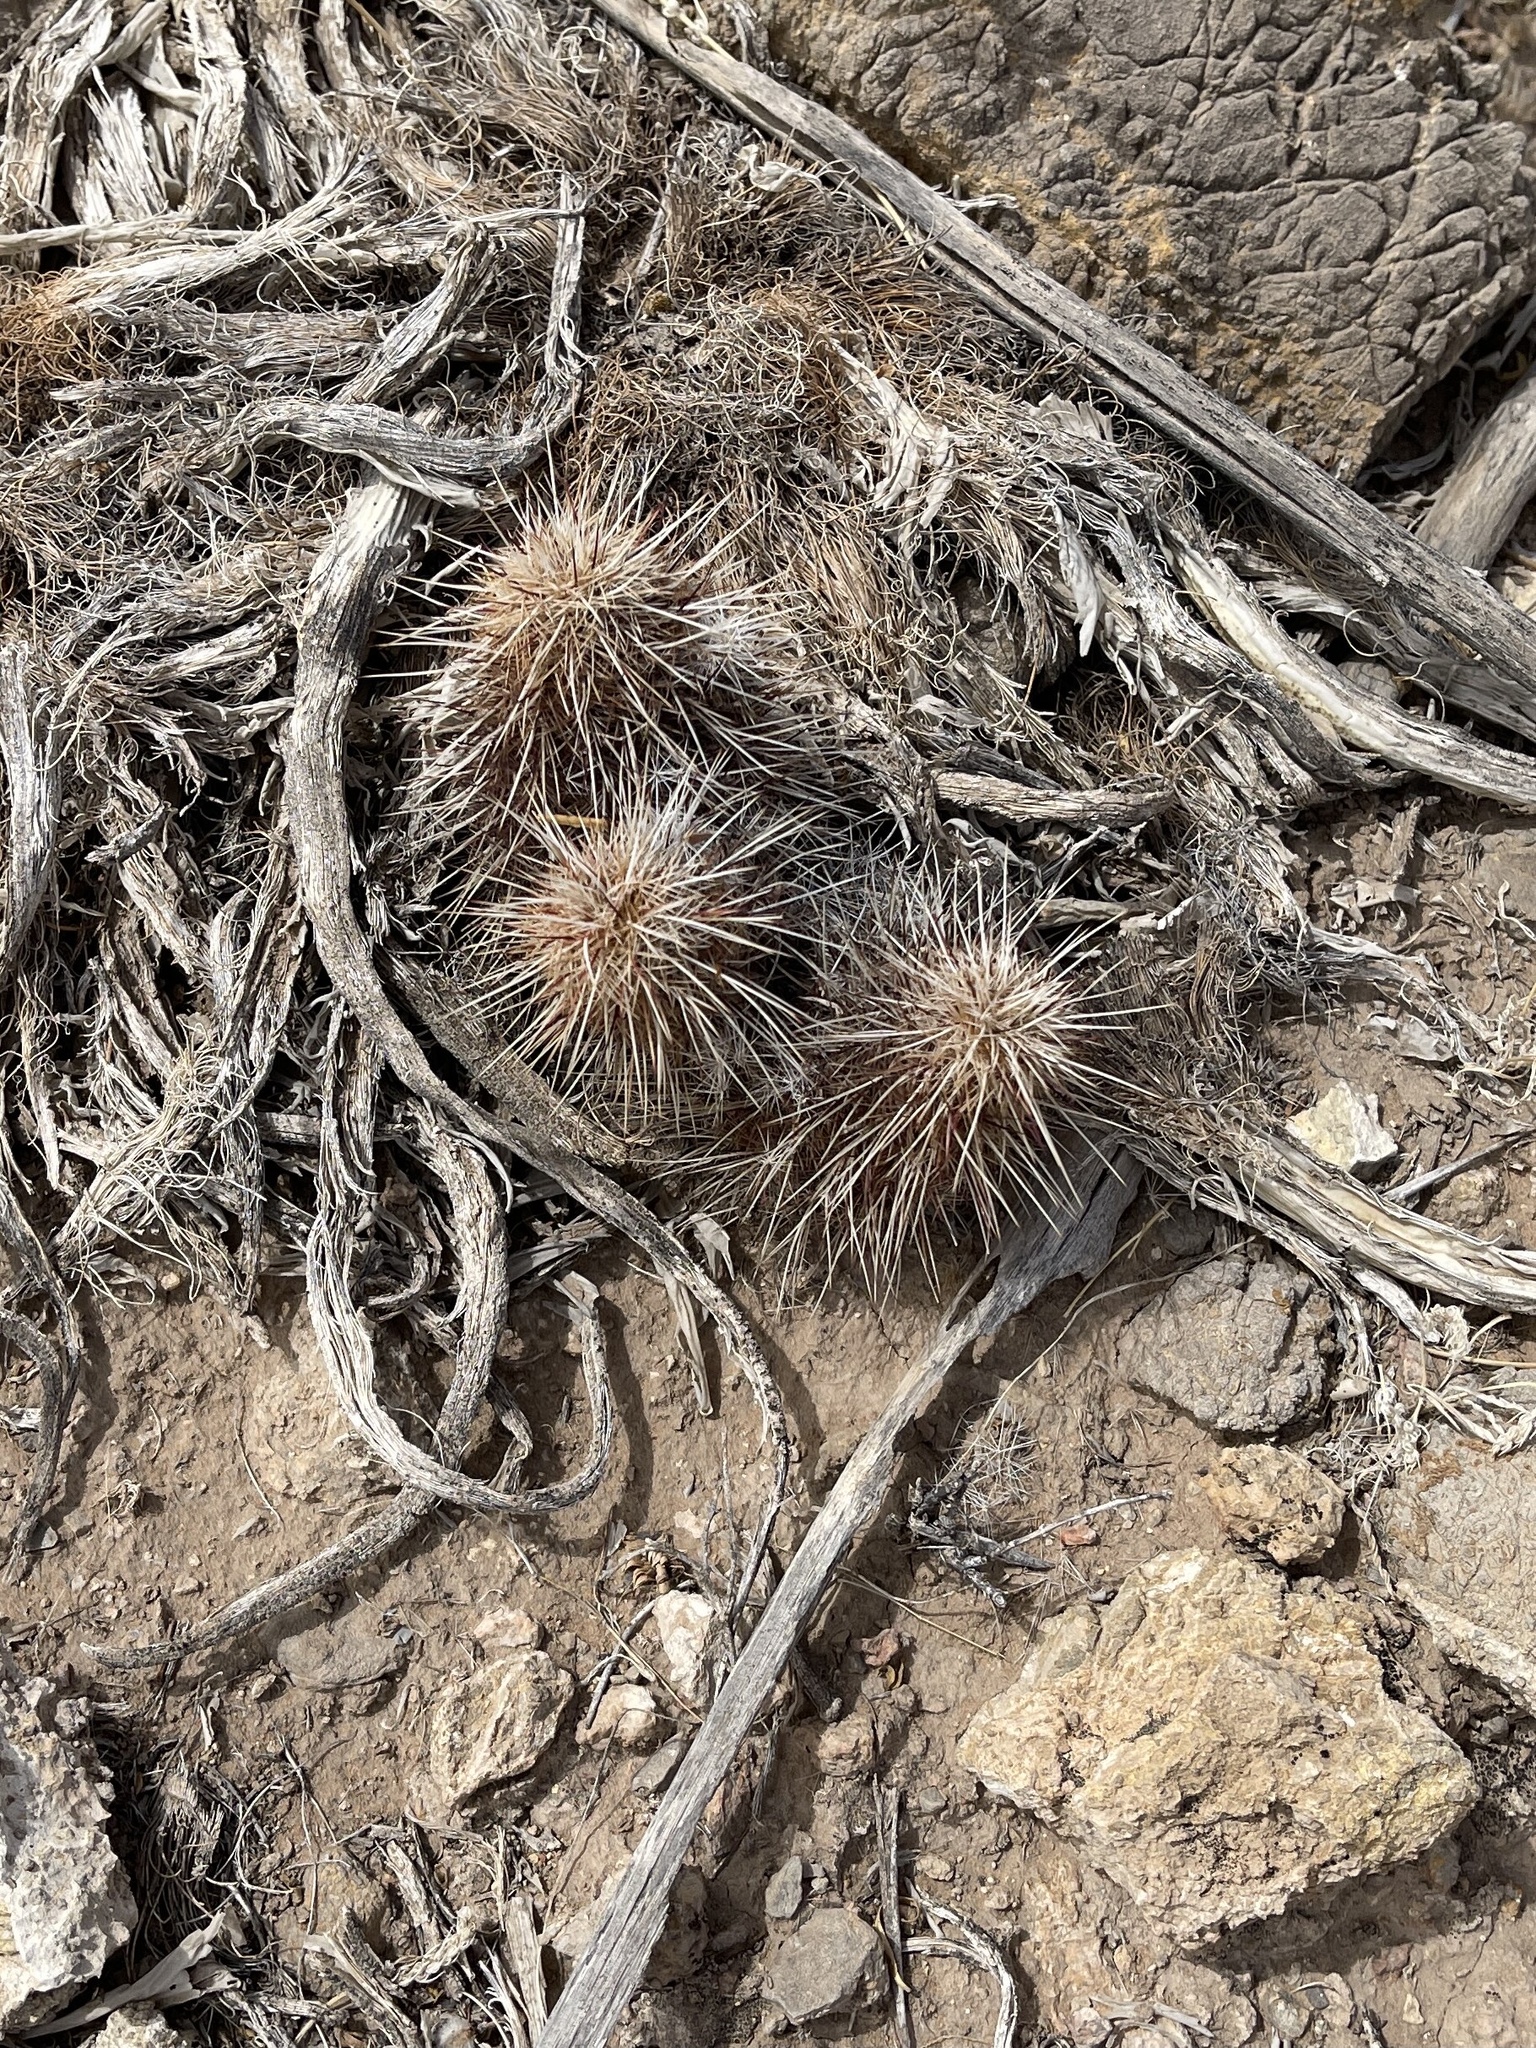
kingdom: Plantae
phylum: Tracheophyta
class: Magnoliopsida
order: Caryophyllales
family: Cactaceae
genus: Echinocereus
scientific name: Echinocereus viridiflorus
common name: Nylon hedgehog cactus
